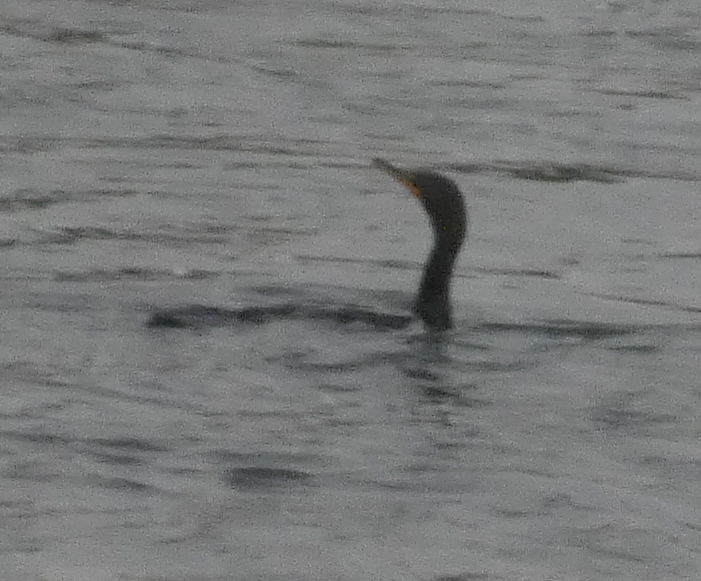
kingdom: Animalia
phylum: Chordata
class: Aves
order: Suliformes
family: Phalacrocoracidae
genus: Phalacrocorax
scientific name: Phalacrocorax auritus
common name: Double-crested cormorant
